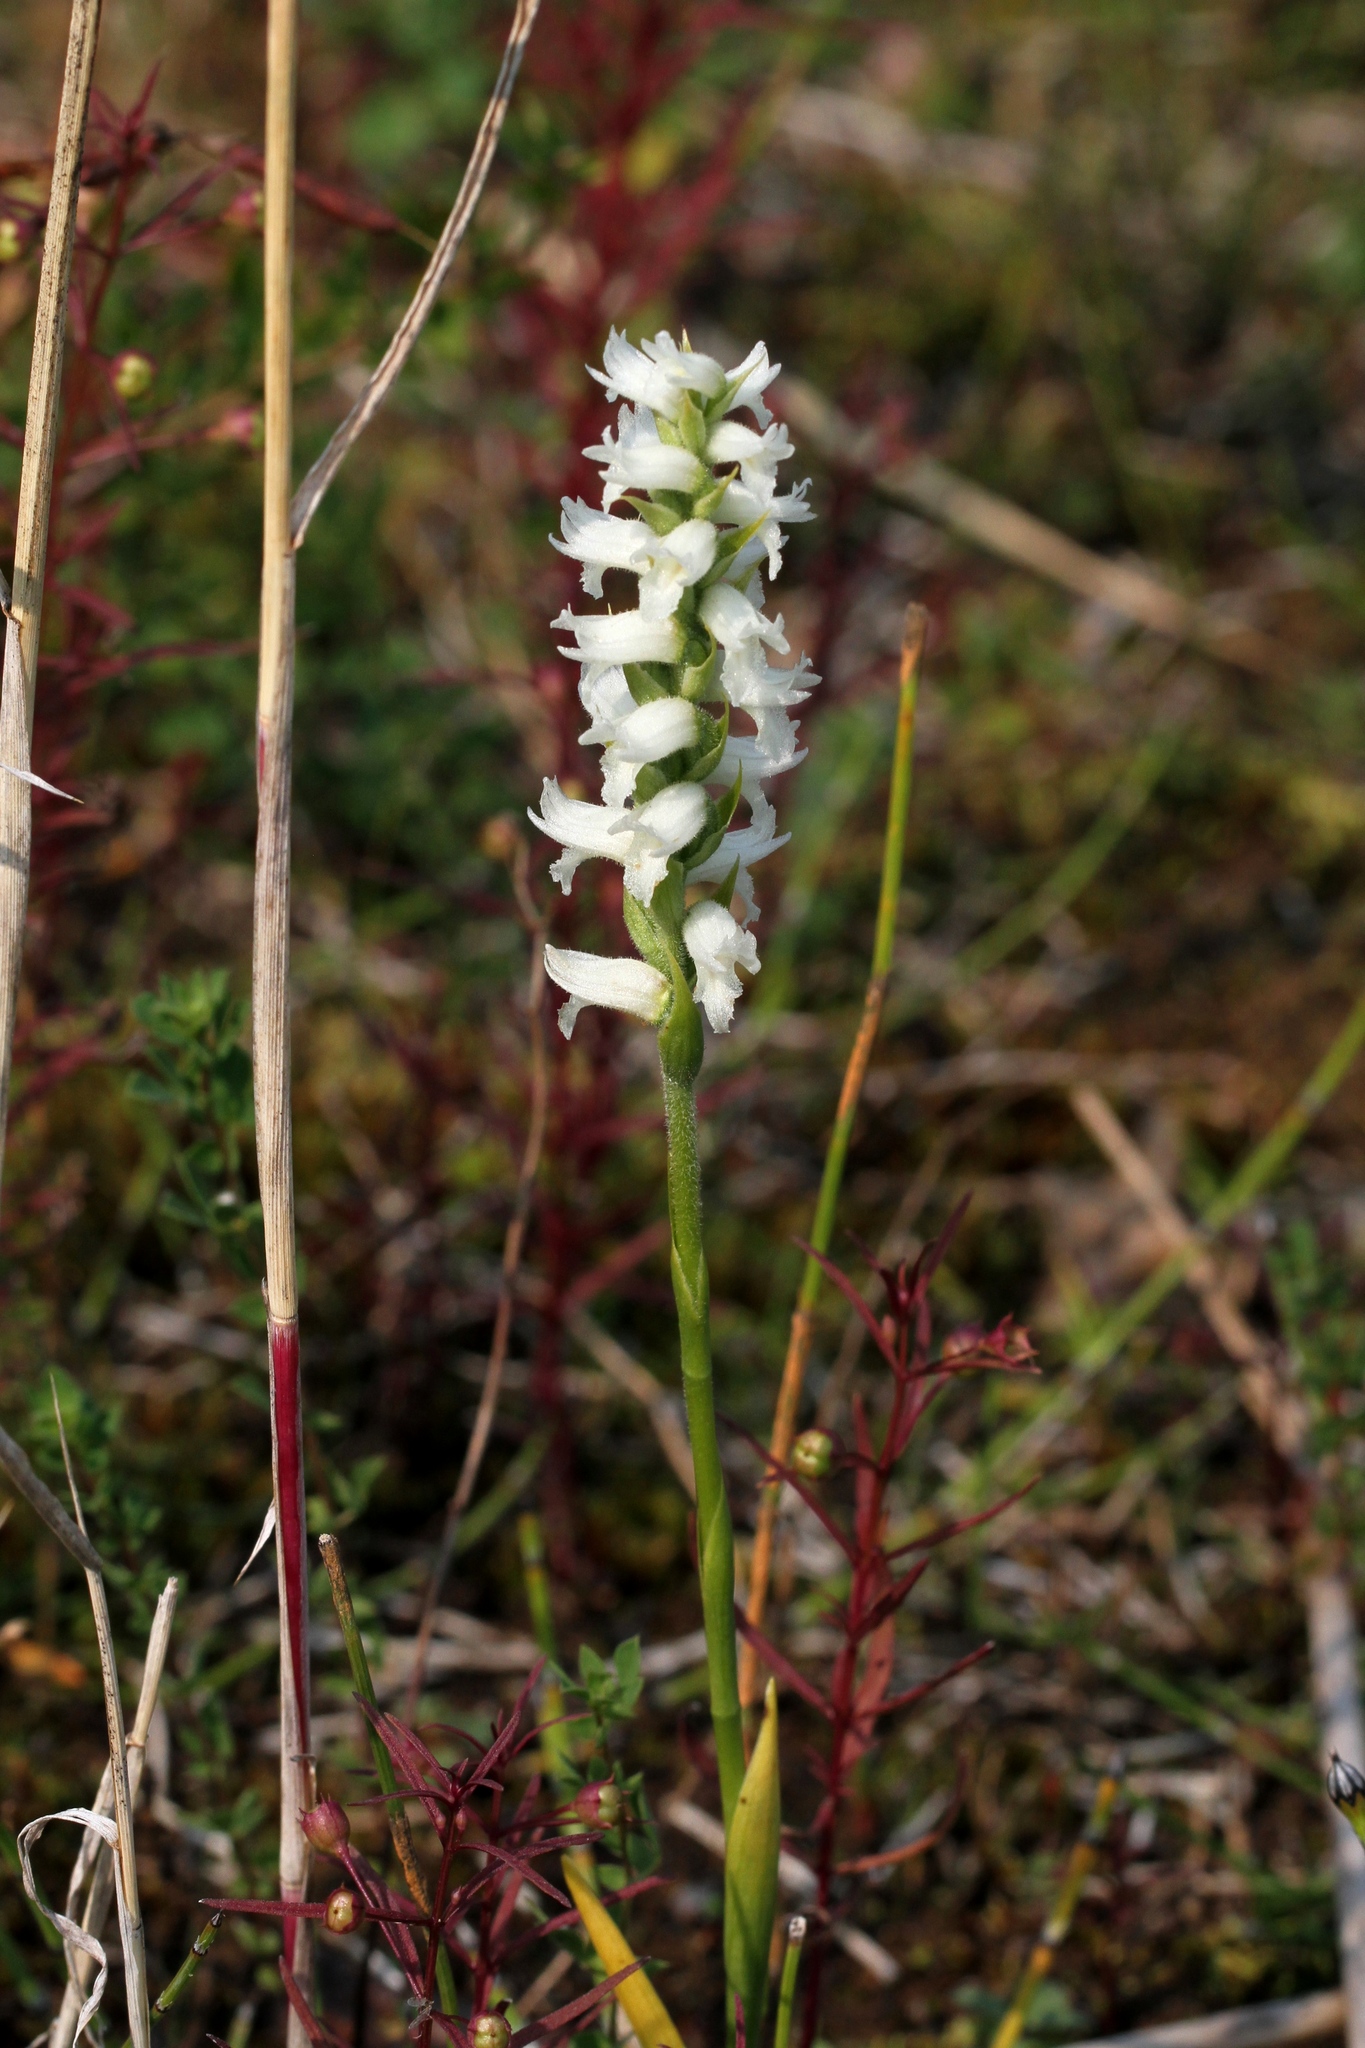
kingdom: Plantae
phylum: Tracheophyta
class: Liliopsida
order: Asparagales
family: Orchidaceae
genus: Spiranthes
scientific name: Spiranthes incurva
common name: Sphinx ladies'-tresses
